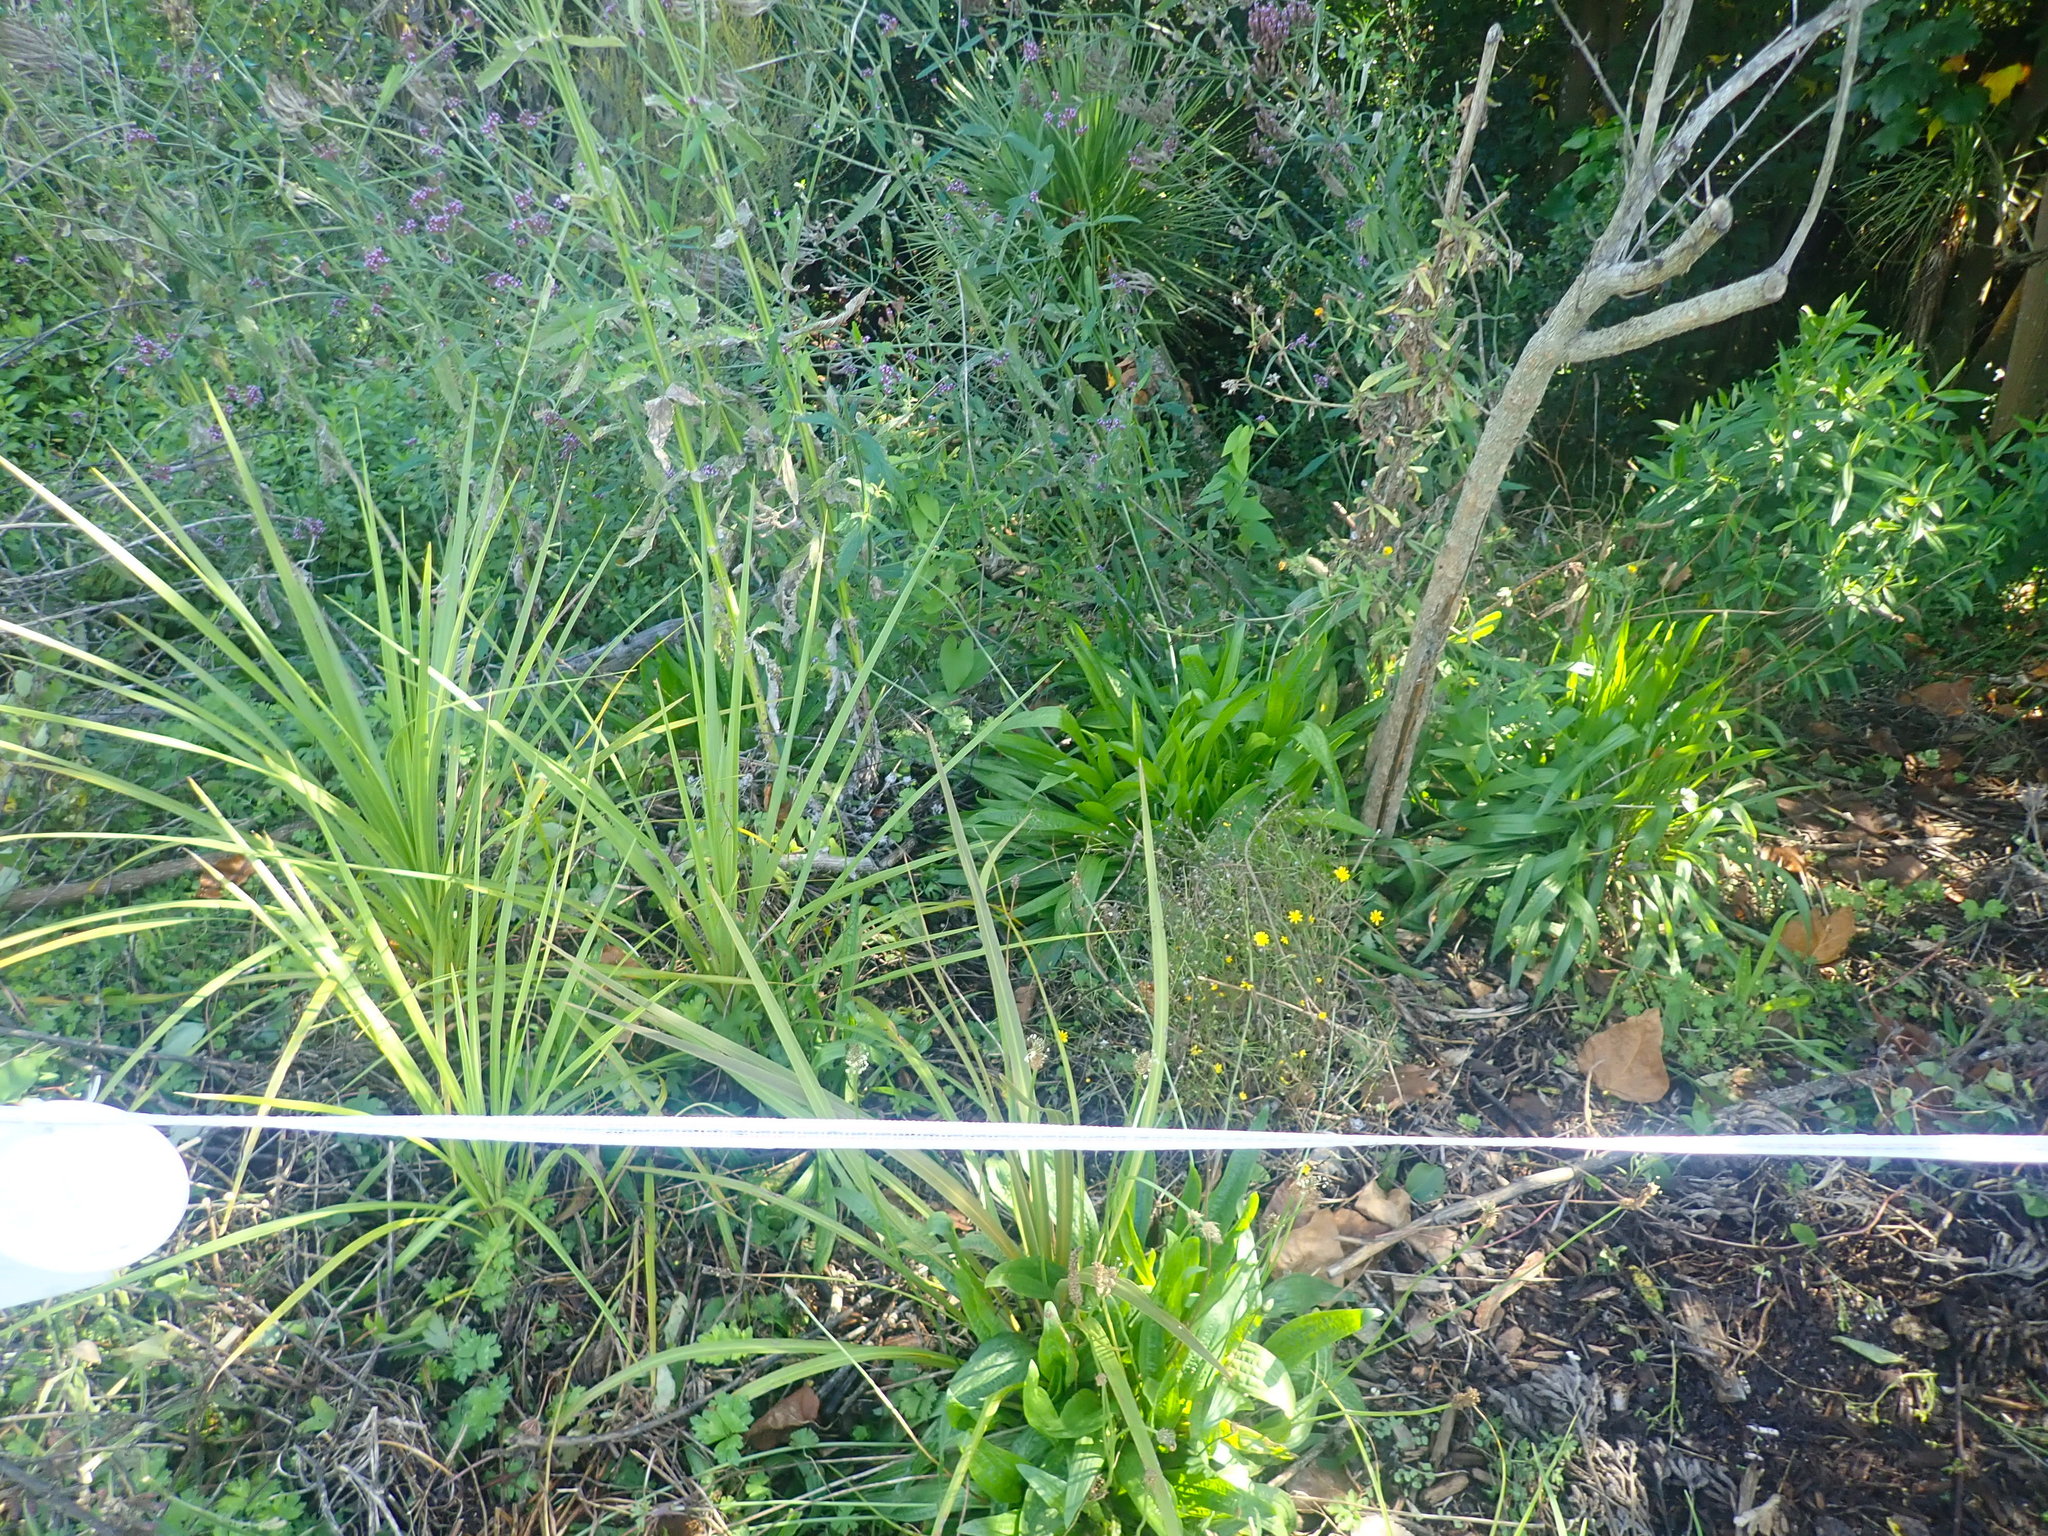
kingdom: Plantae
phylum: Tracheophyta
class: Liliopsida
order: Asparagales
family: Asparagaceae
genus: Cordyline
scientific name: Cordyline australis
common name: Cabbage-palm
